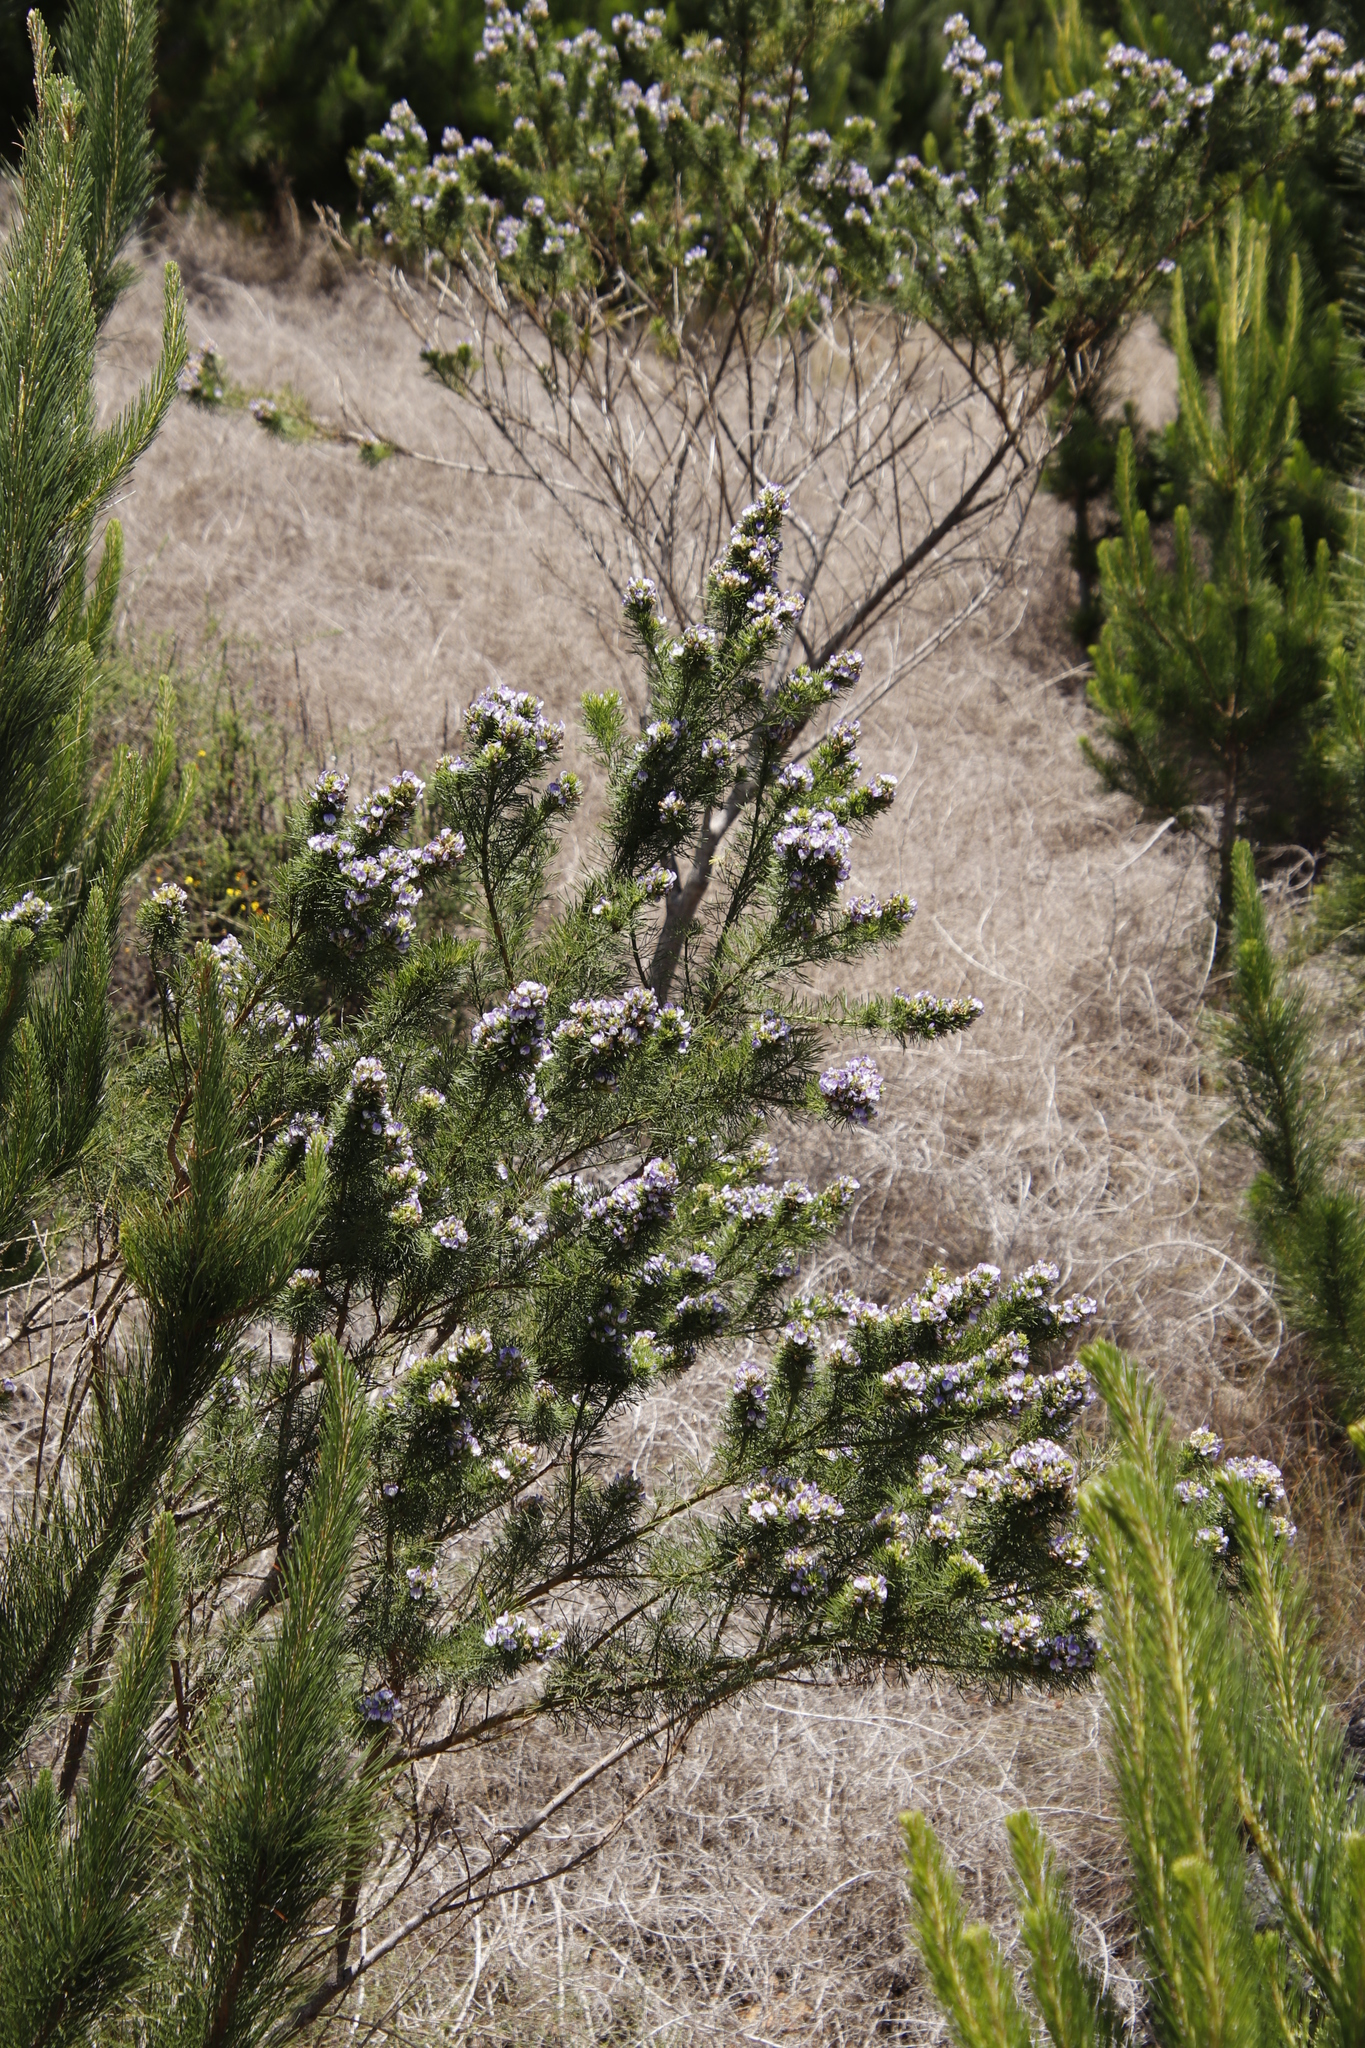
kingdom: Plantae
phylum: Tracheophyta
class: Magnoliopsida
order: Fabales
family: Fabaceae
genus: Psoralea
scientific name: Psoralea pinnata
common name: African scurfpea
